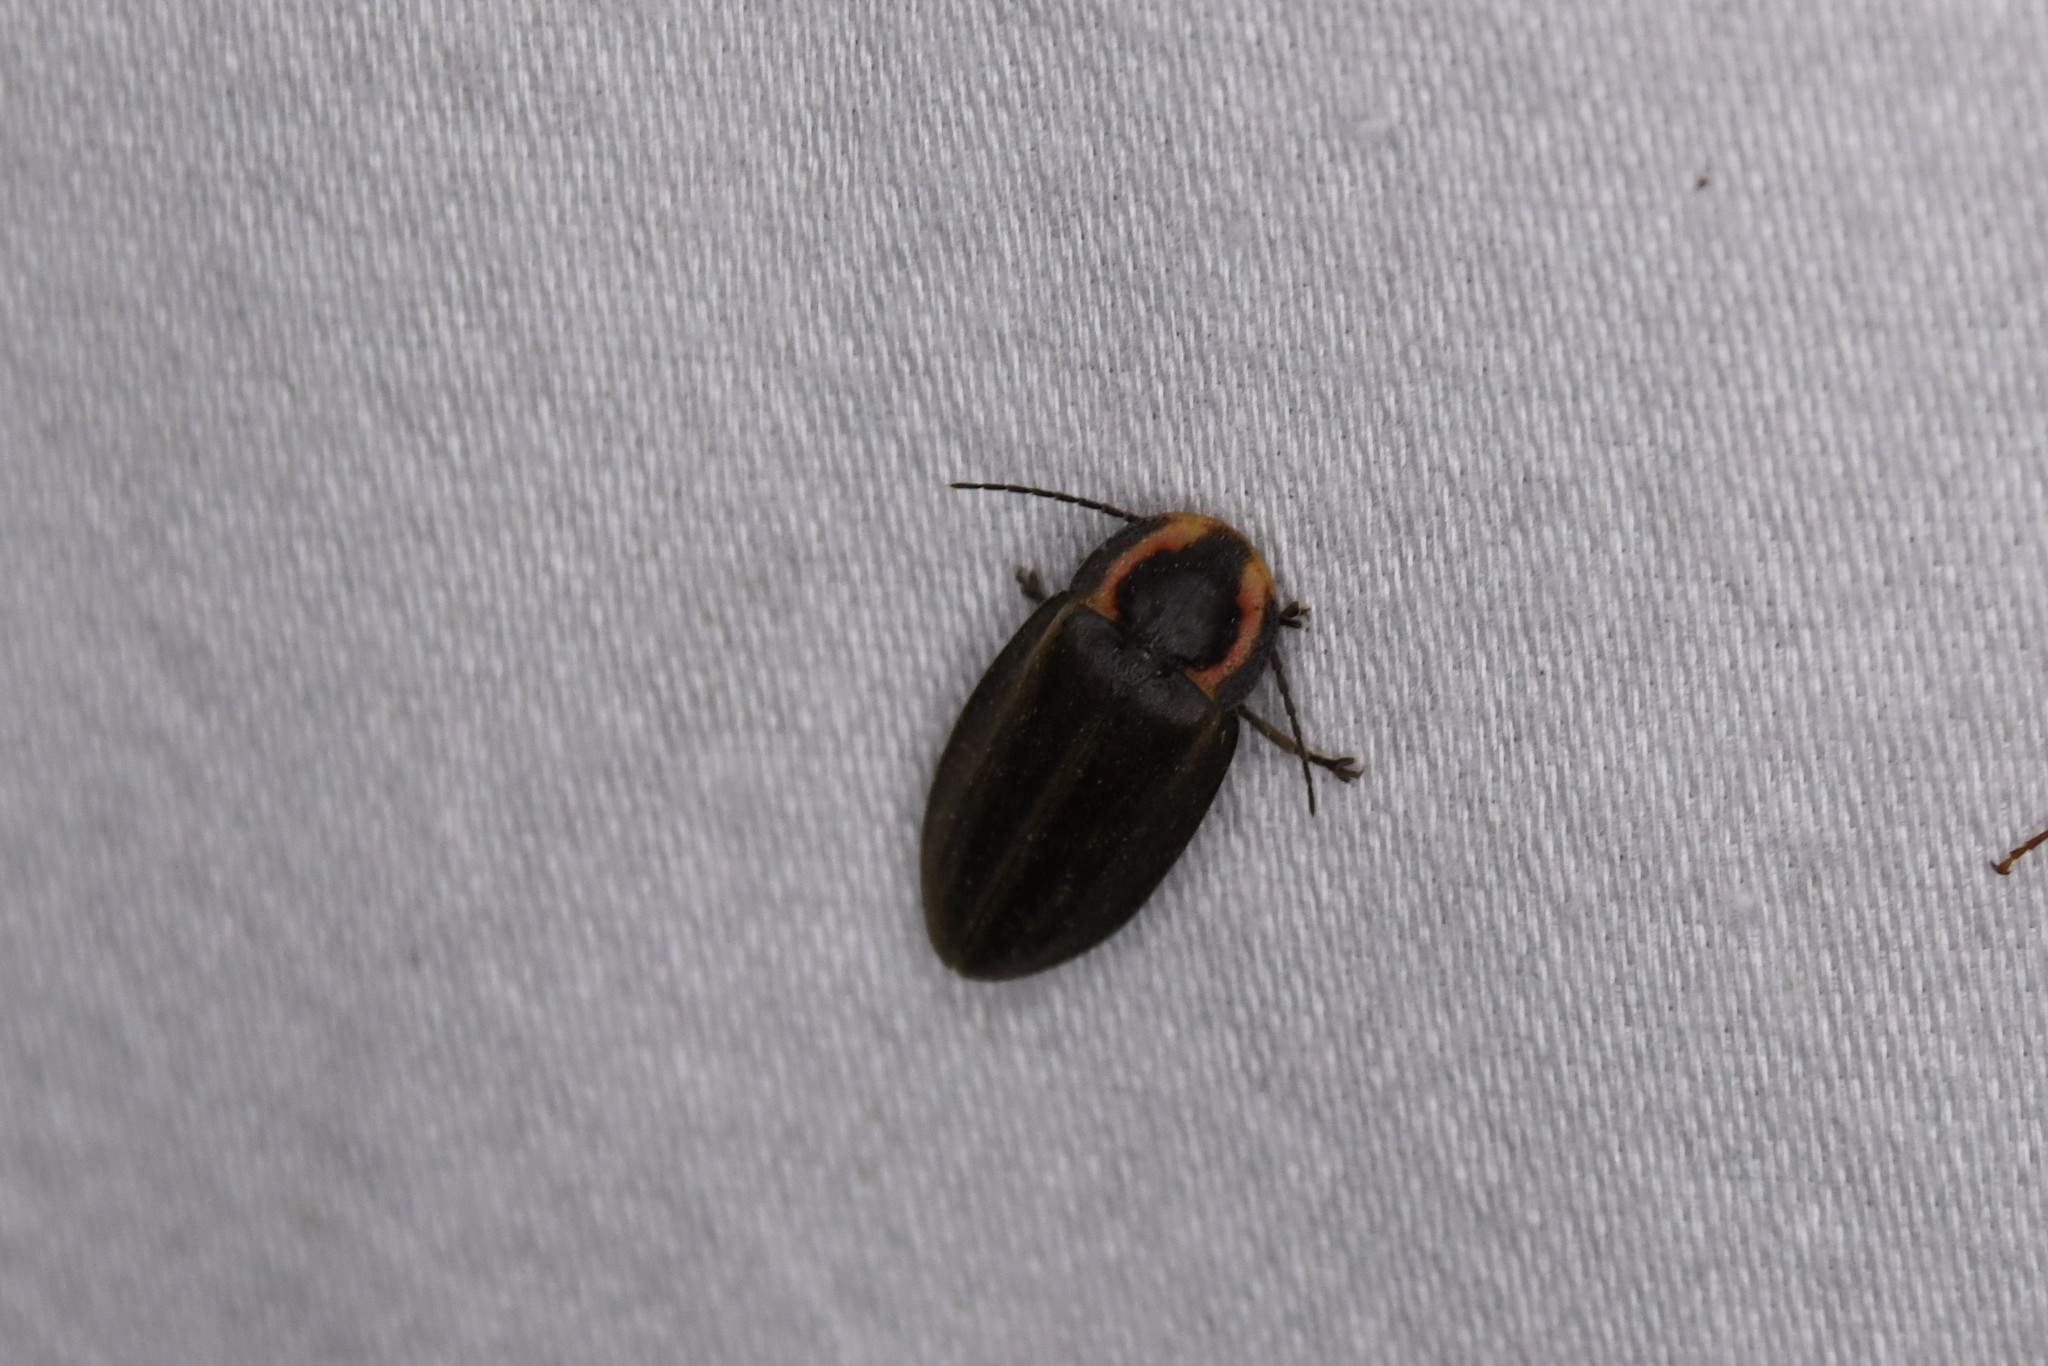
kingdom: Animalia
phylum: Arthropoda
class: Insecta
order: Coleoptera
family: Lampyridae
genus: Photinus
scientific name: Photinus corrusca
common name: Winter firefly
